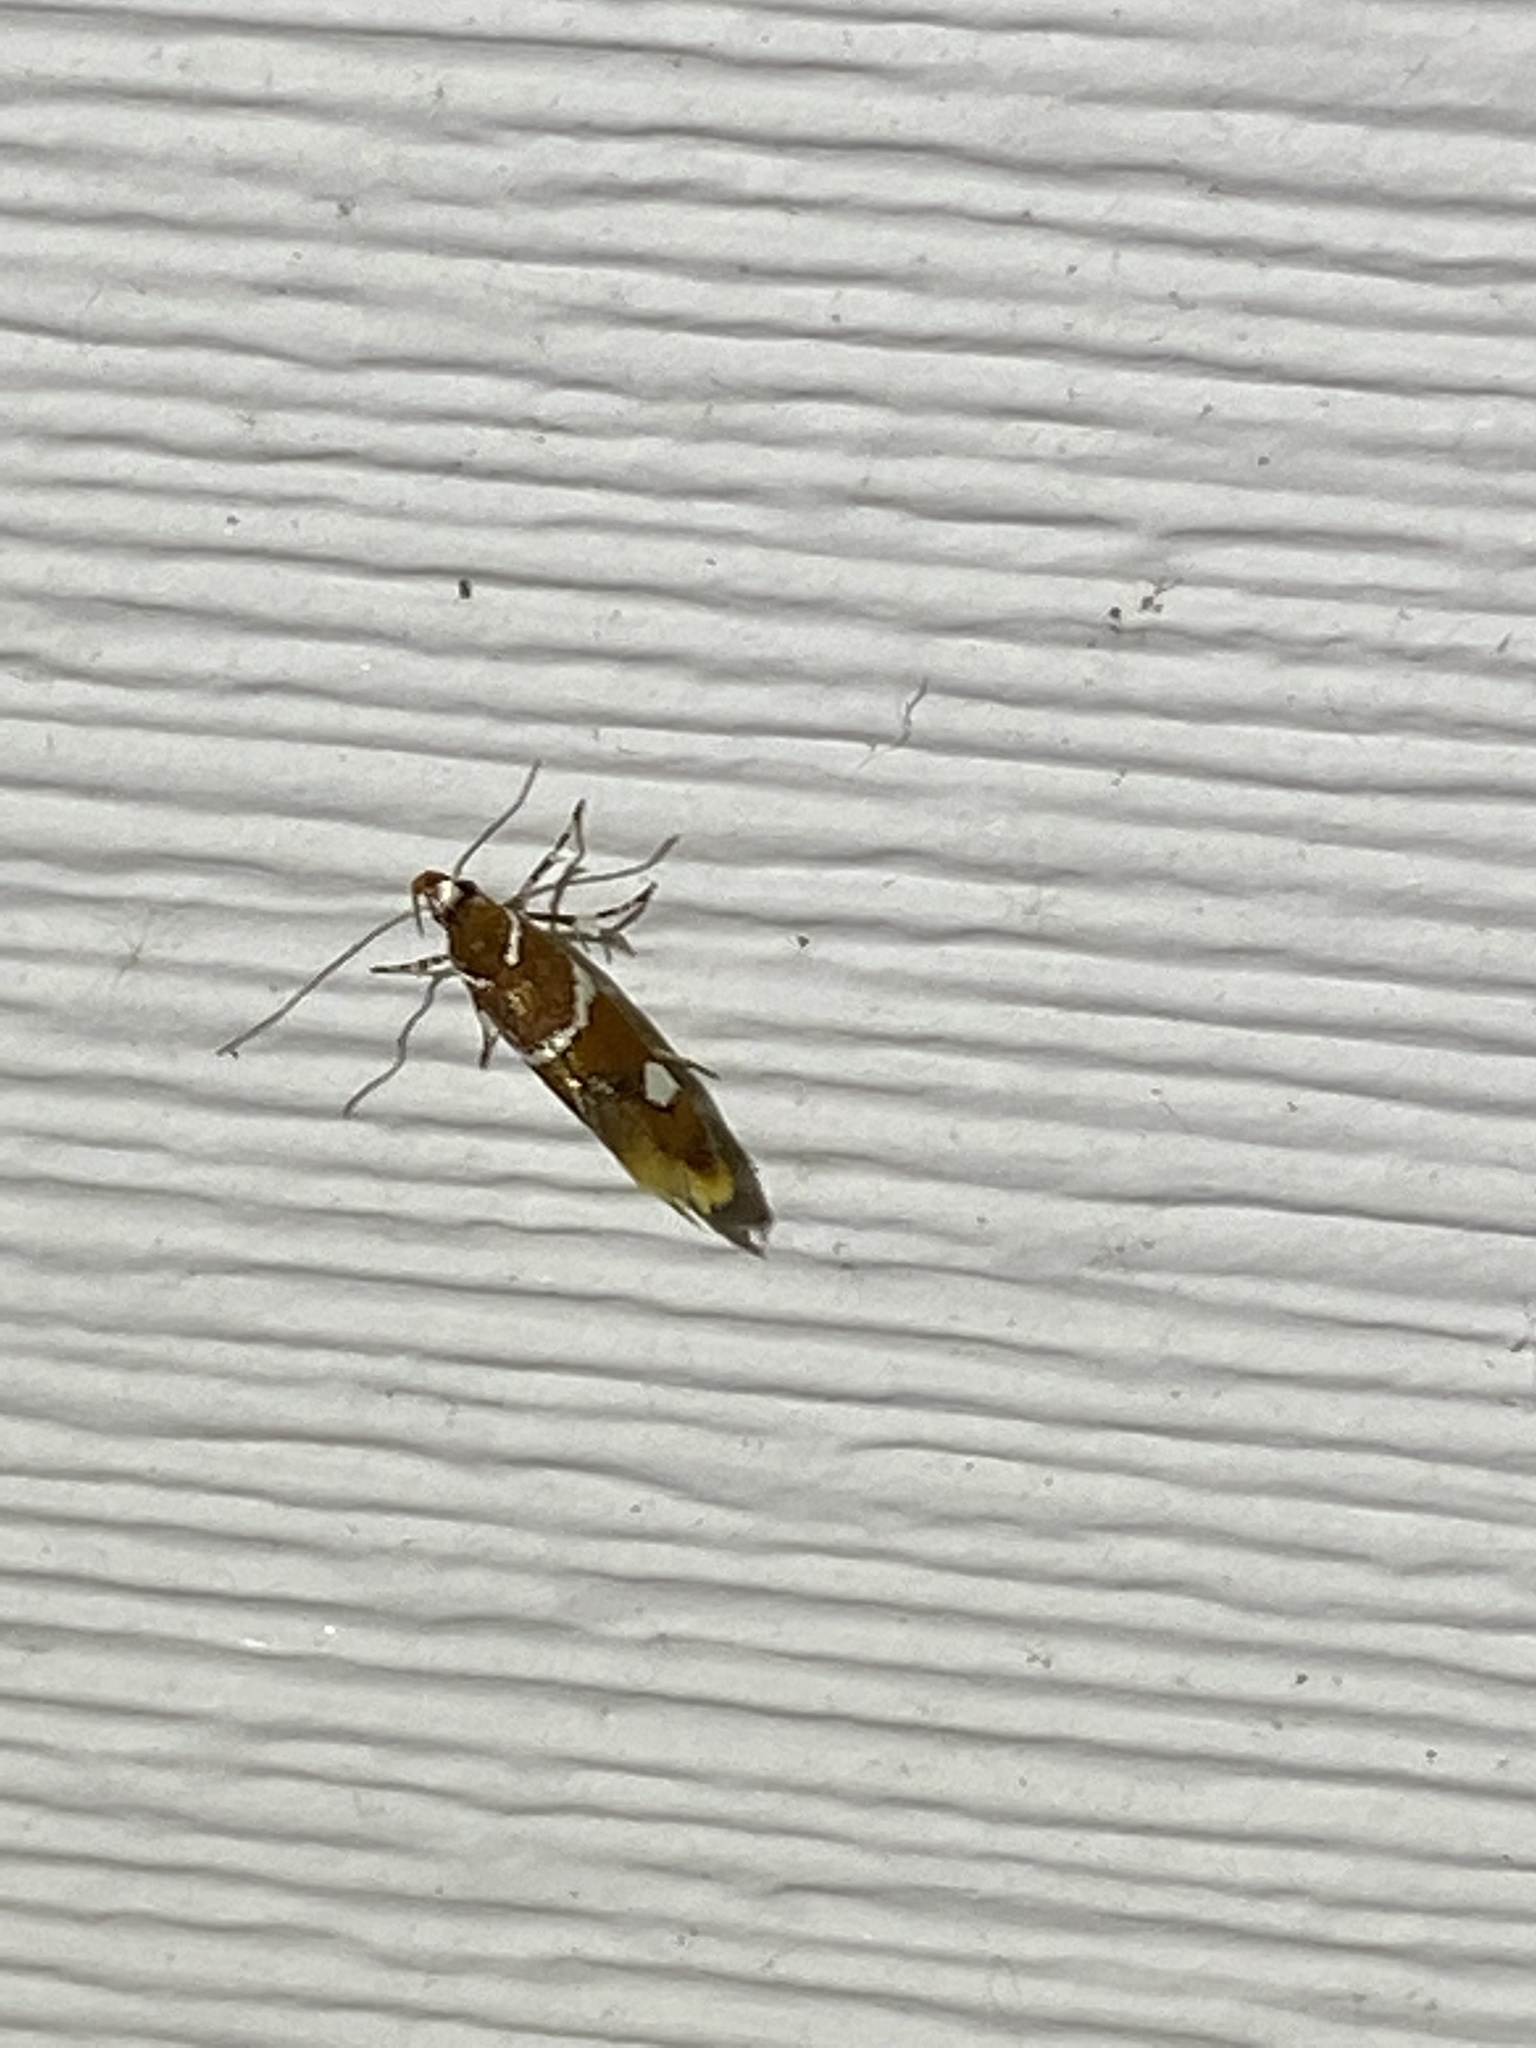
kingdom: Animalia
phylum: Arthropoda
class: Insecta
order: Lepidoptera
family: Oecophoridae
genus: Promalactis
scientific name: Promalactis suzukiella
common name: Moth
